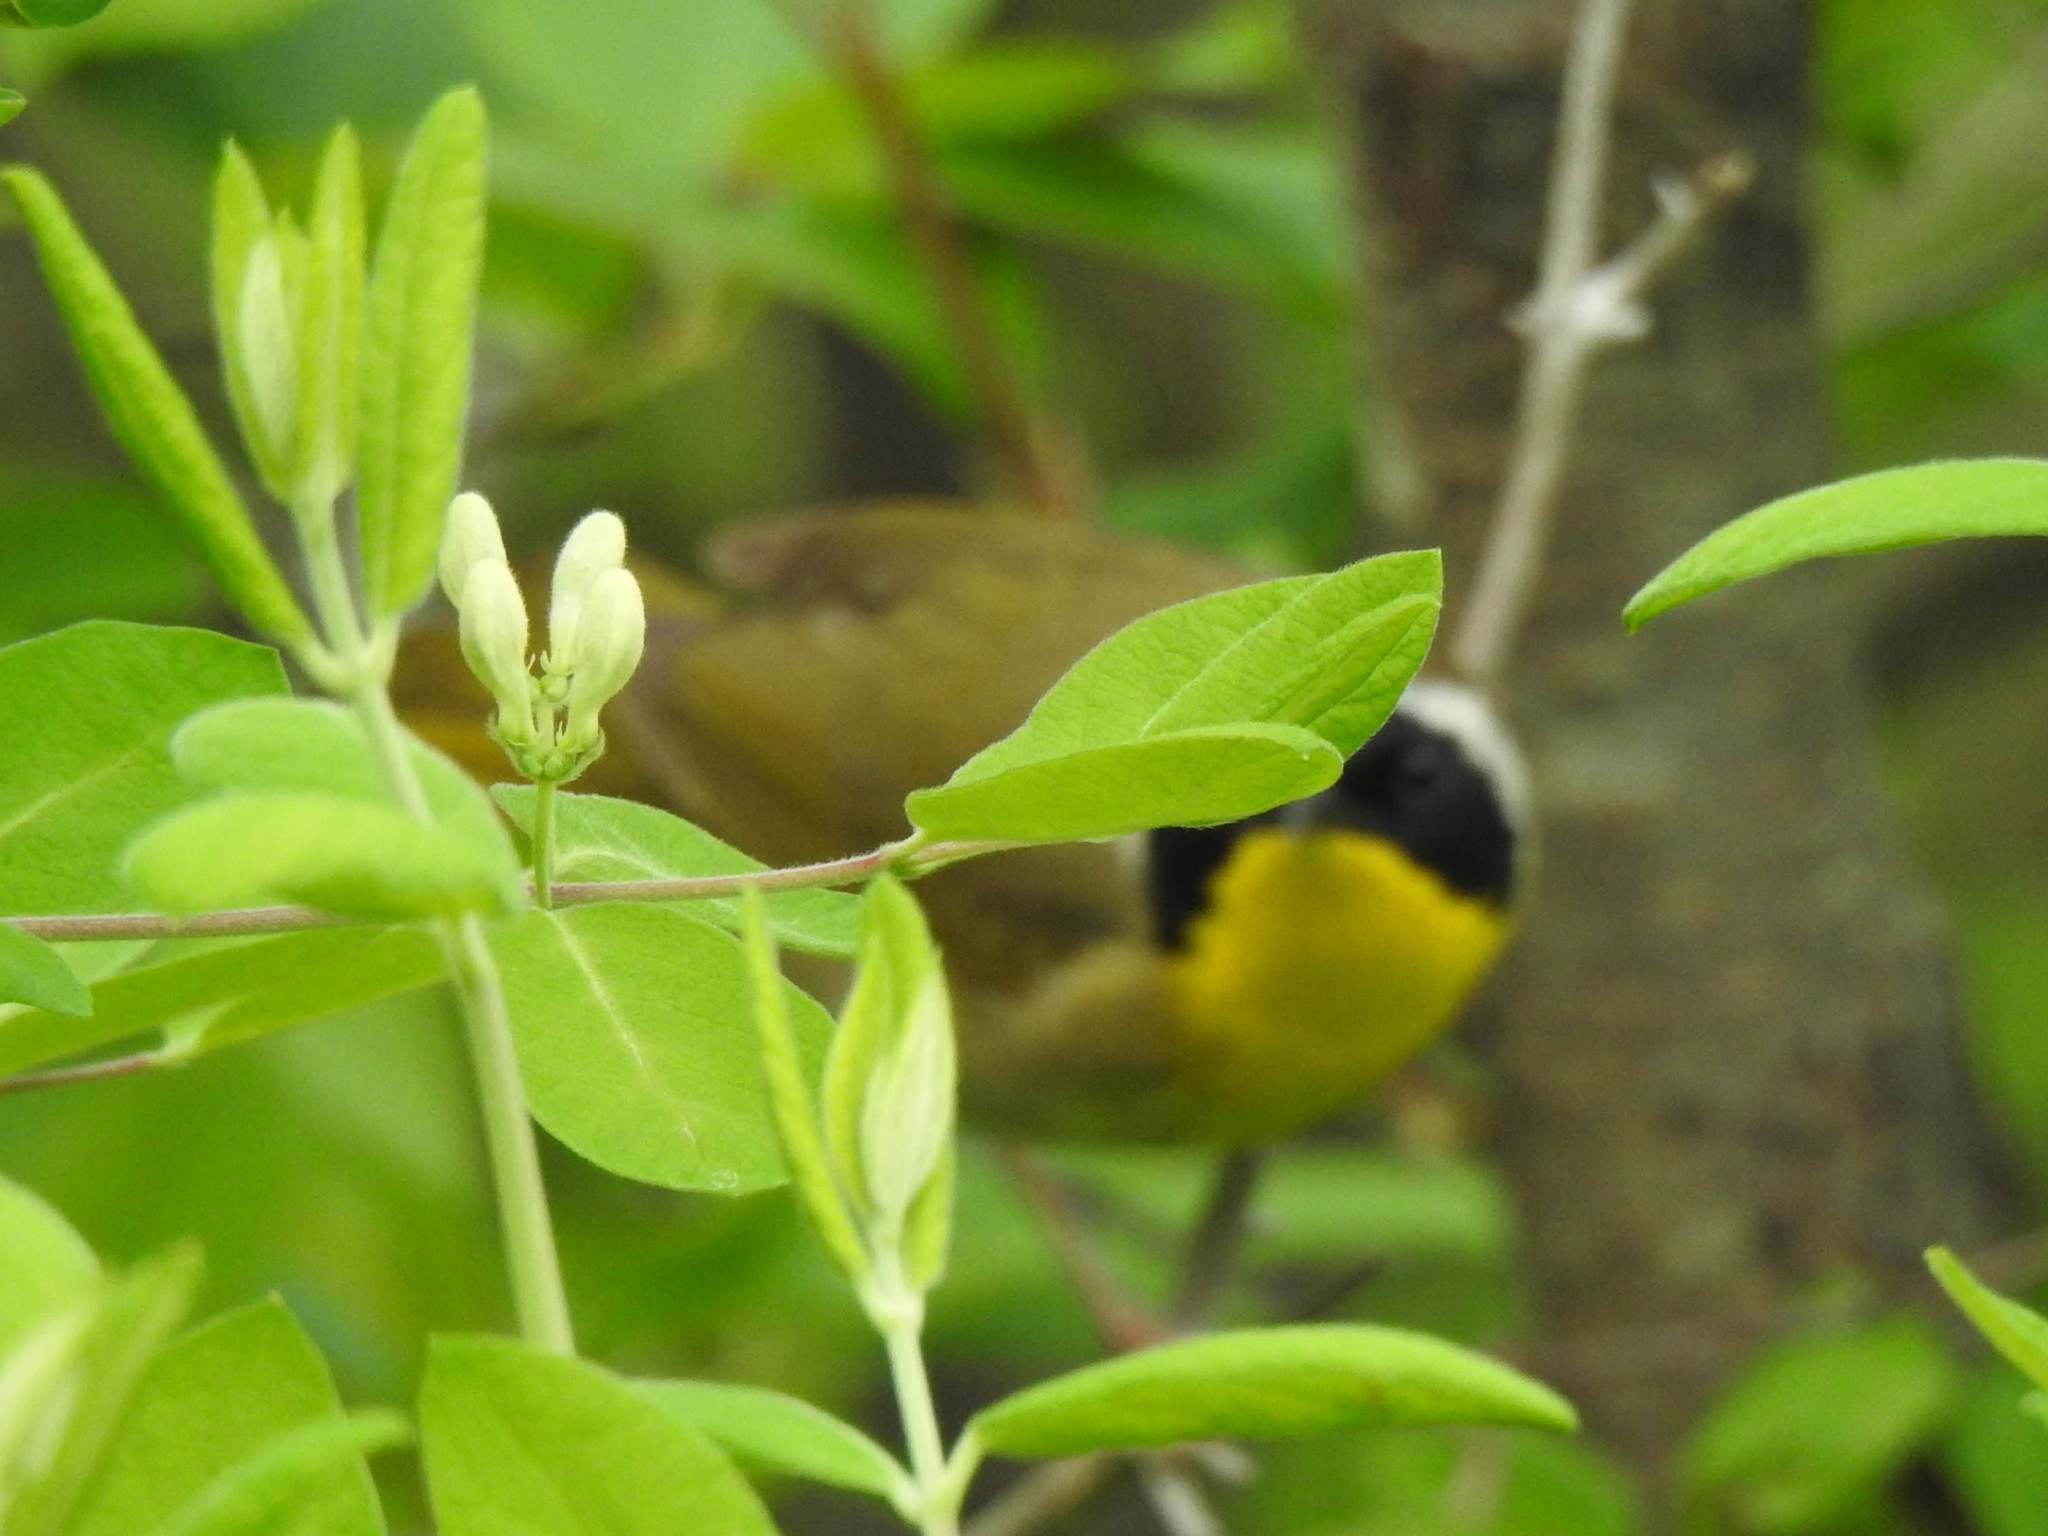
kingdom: Animalia
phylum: Chordata
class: Aves
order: Passeriformes
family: Parulidae
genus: Geothlypis
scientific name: Geothlypis trichas
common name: Common yellowthroat
